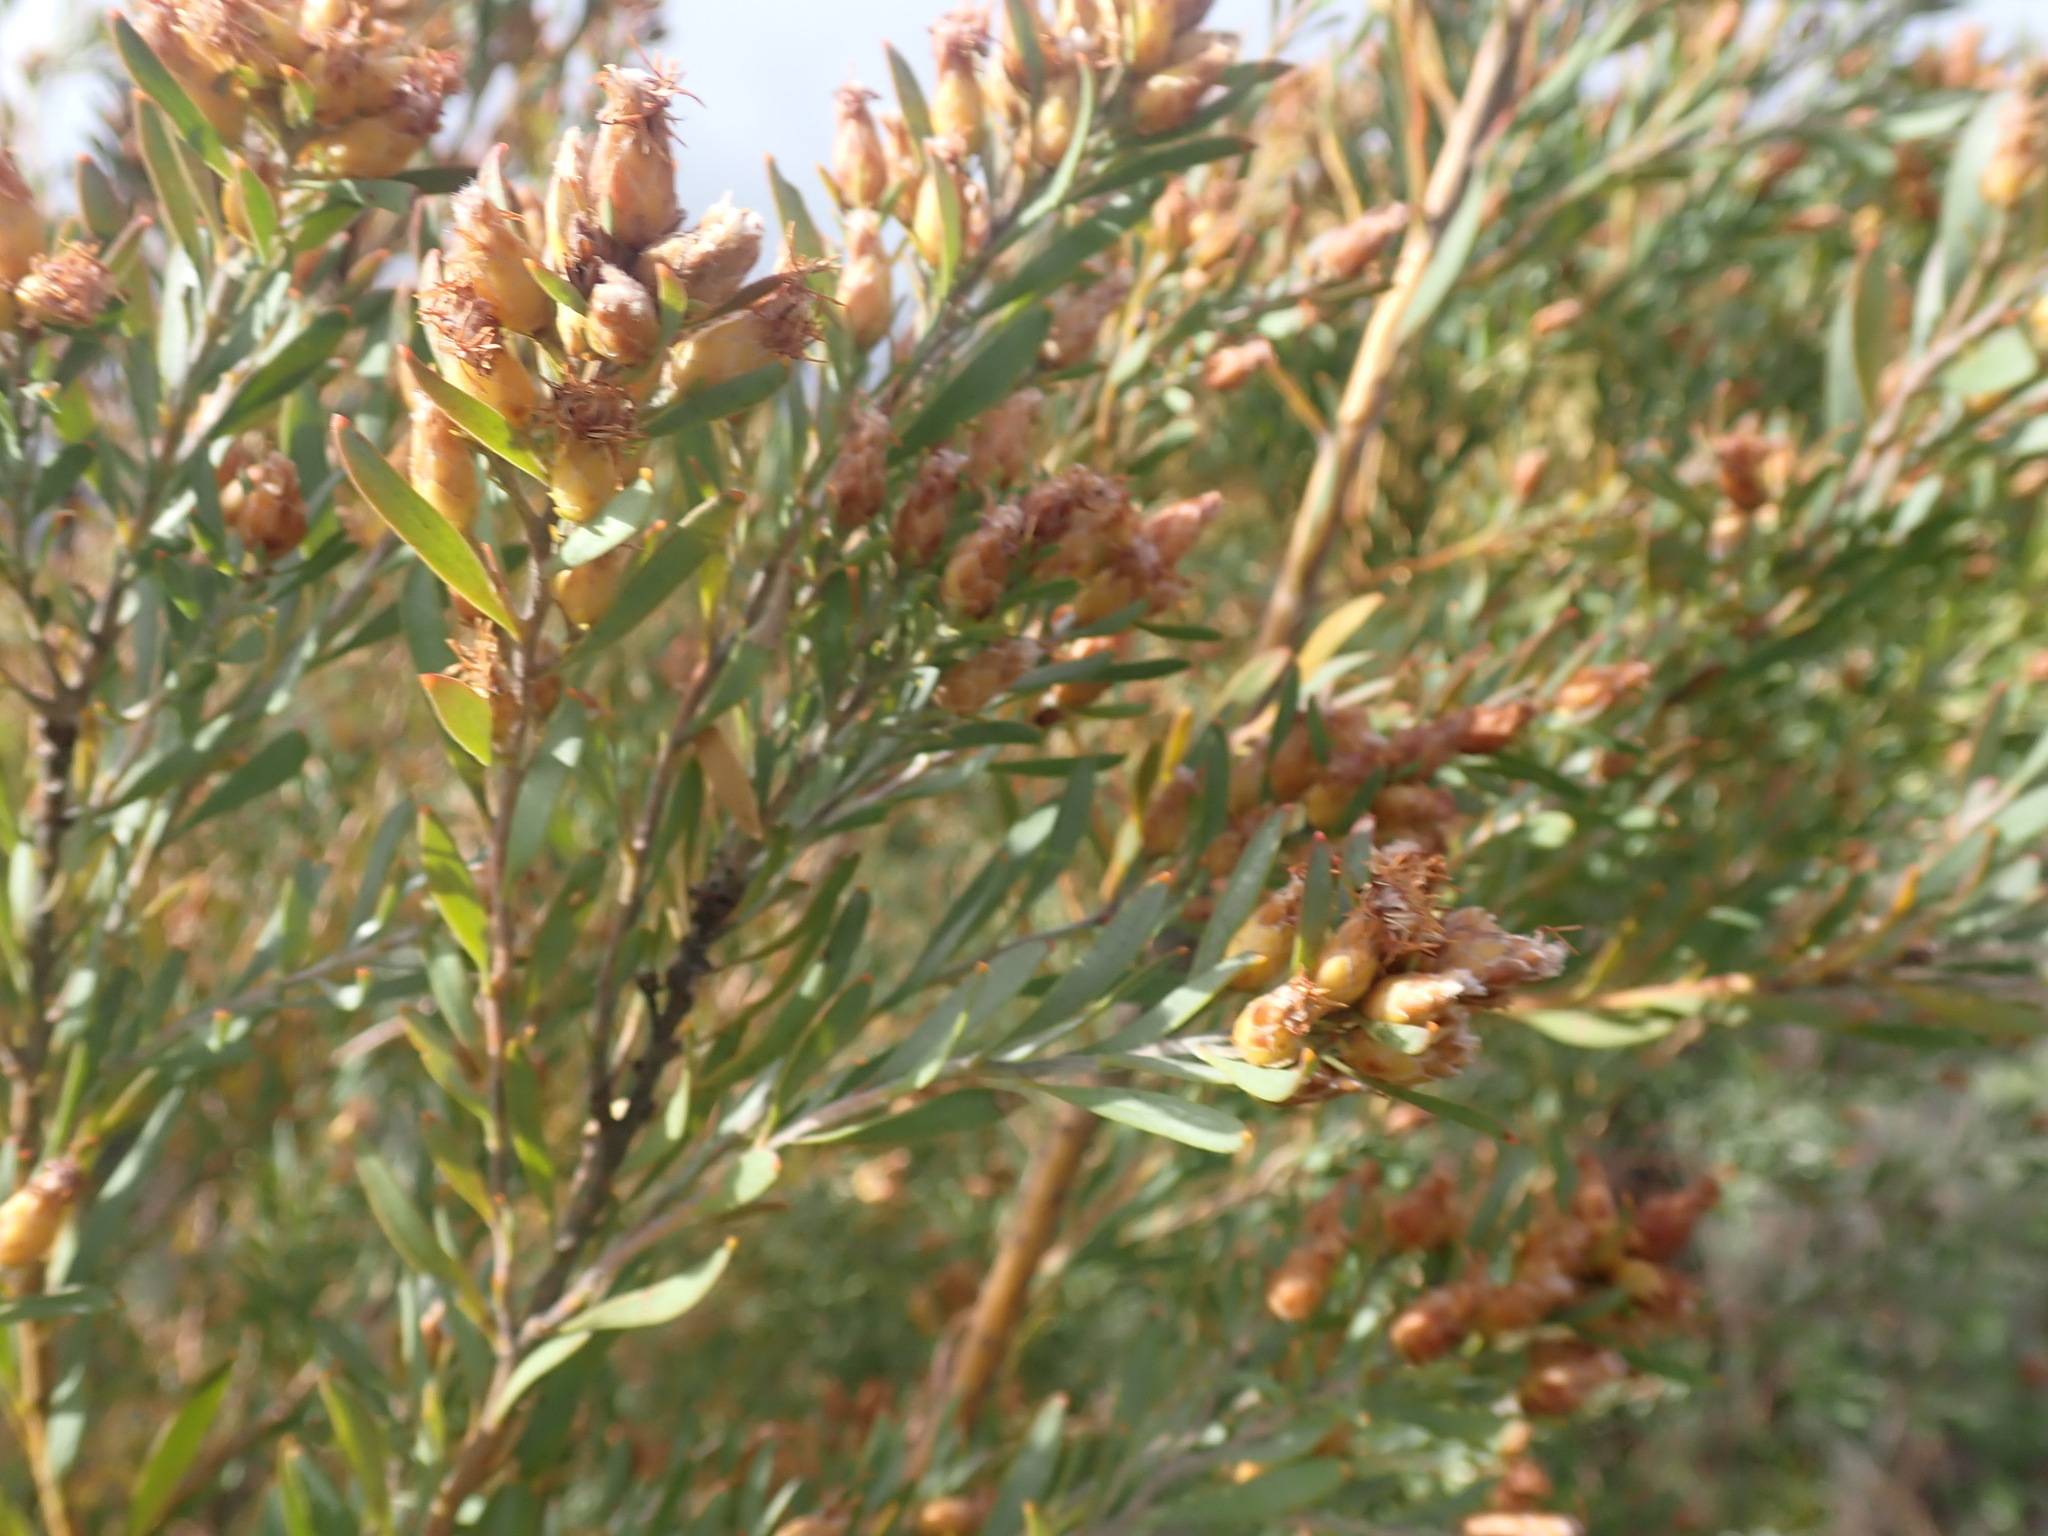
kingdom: Plantae
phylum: Tracheophyta
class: Magnoliopsida
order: Proteales
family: Proteaceae
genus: Leucadendron
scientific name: Leucadendron rubrum
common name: Spinning top
